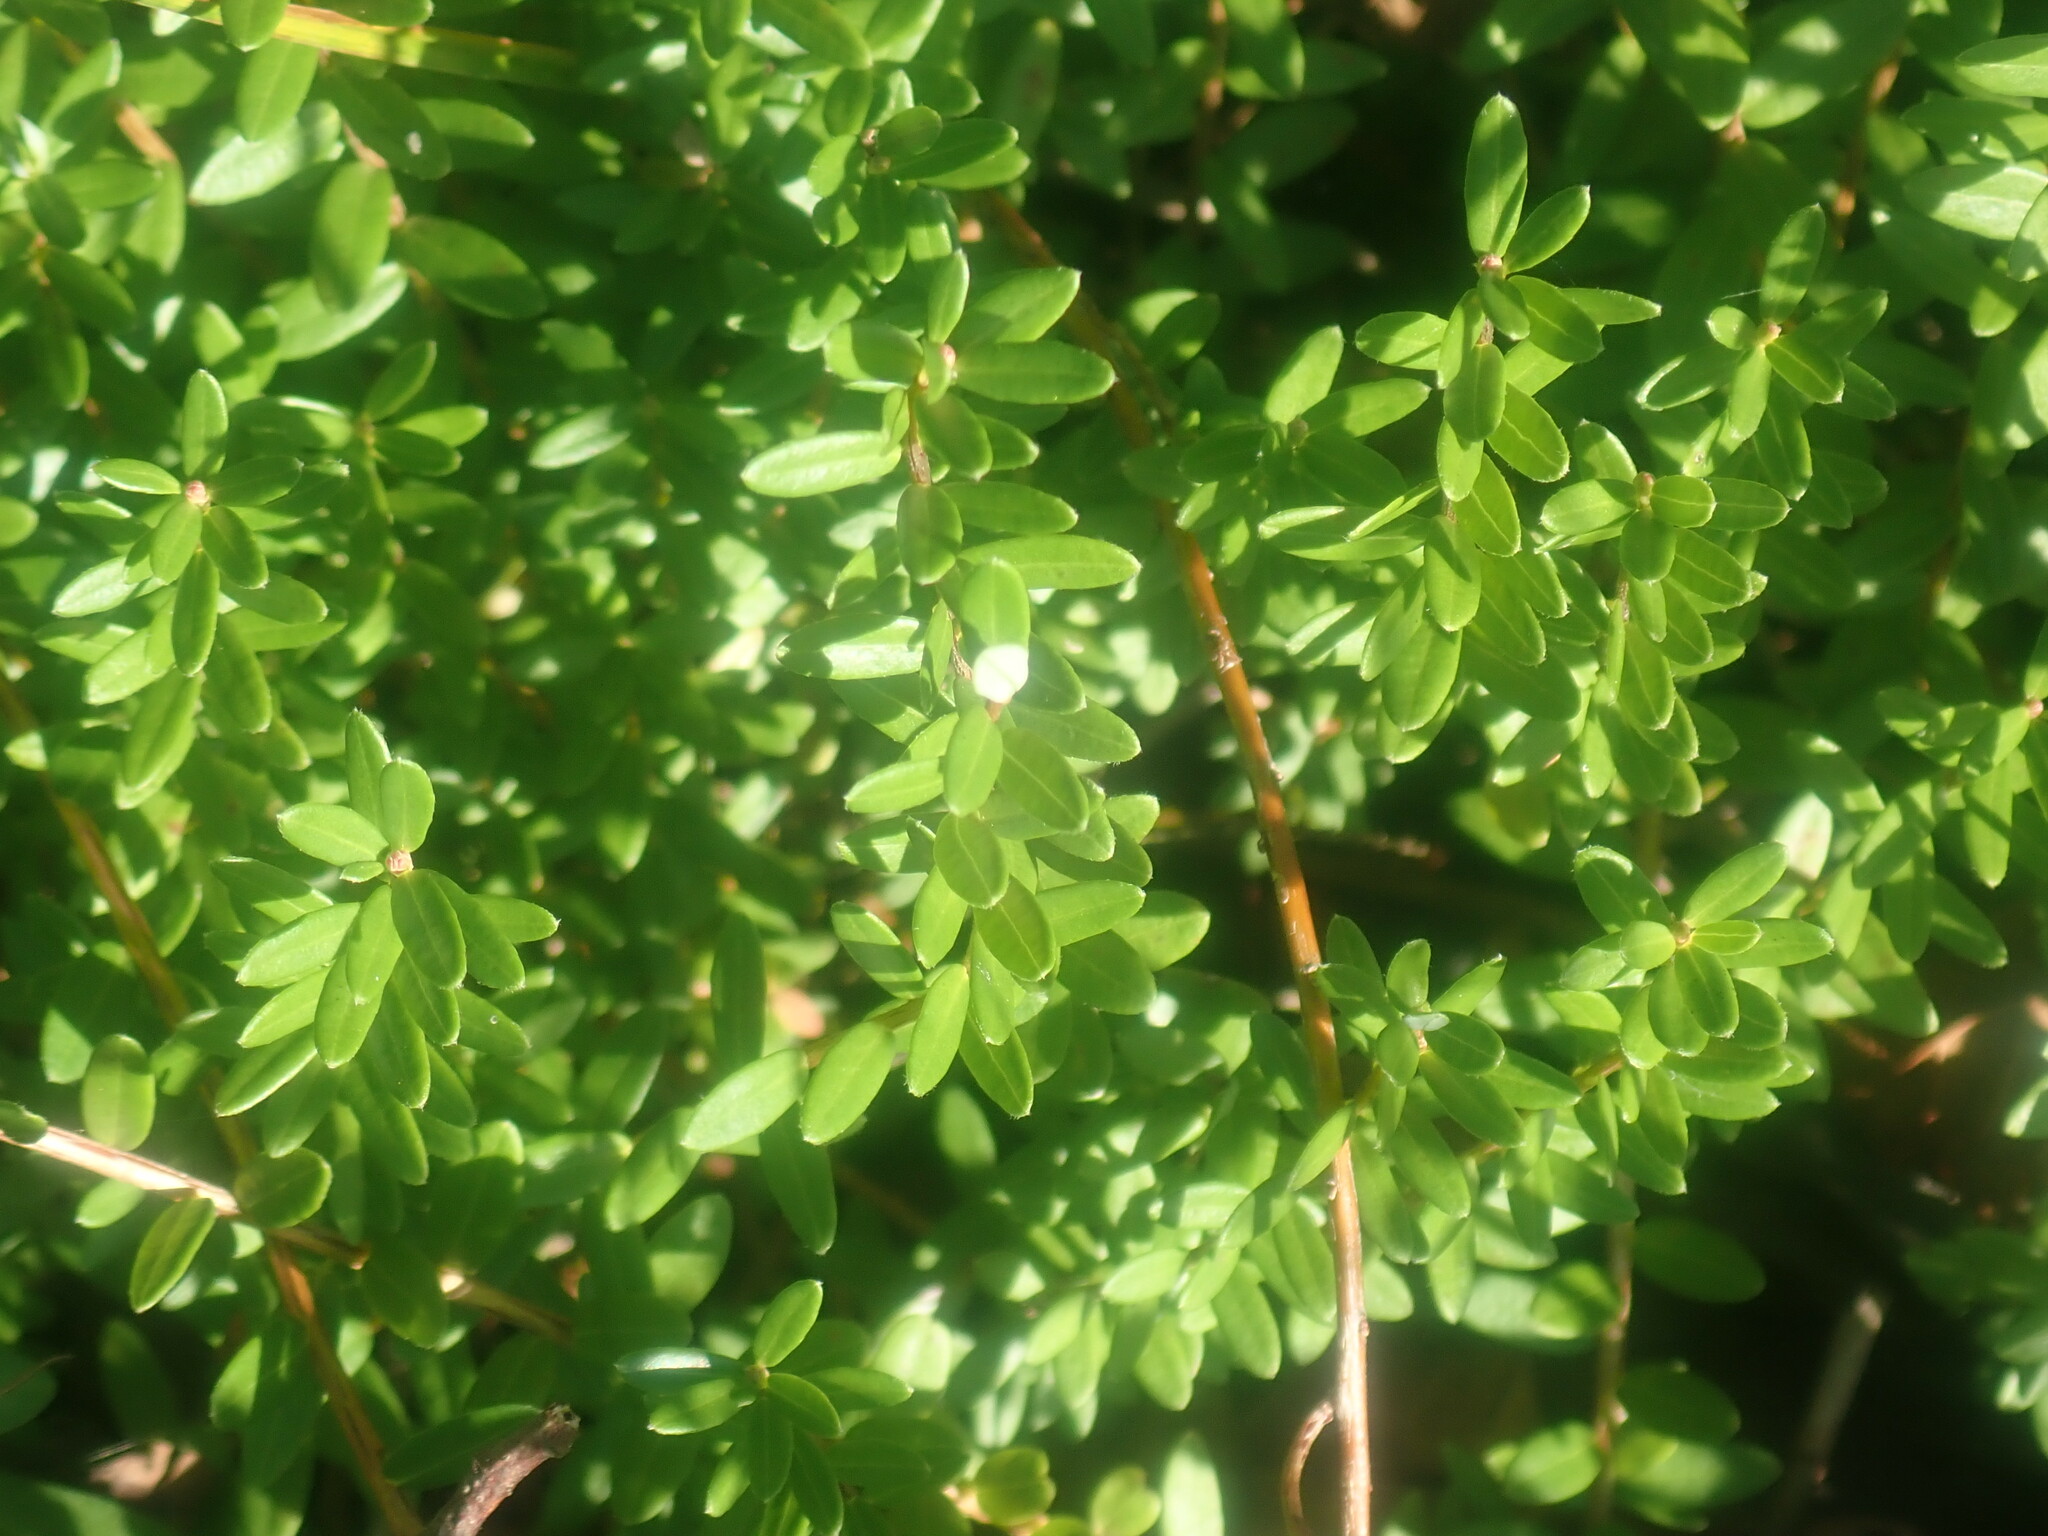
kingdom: Plantae
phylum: Tracheophyta
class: Magnoliopsida
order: Ericales
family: Ericaceae
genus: Vaccinium
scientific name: Vaccinium macrocarpon
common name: American cranberry
